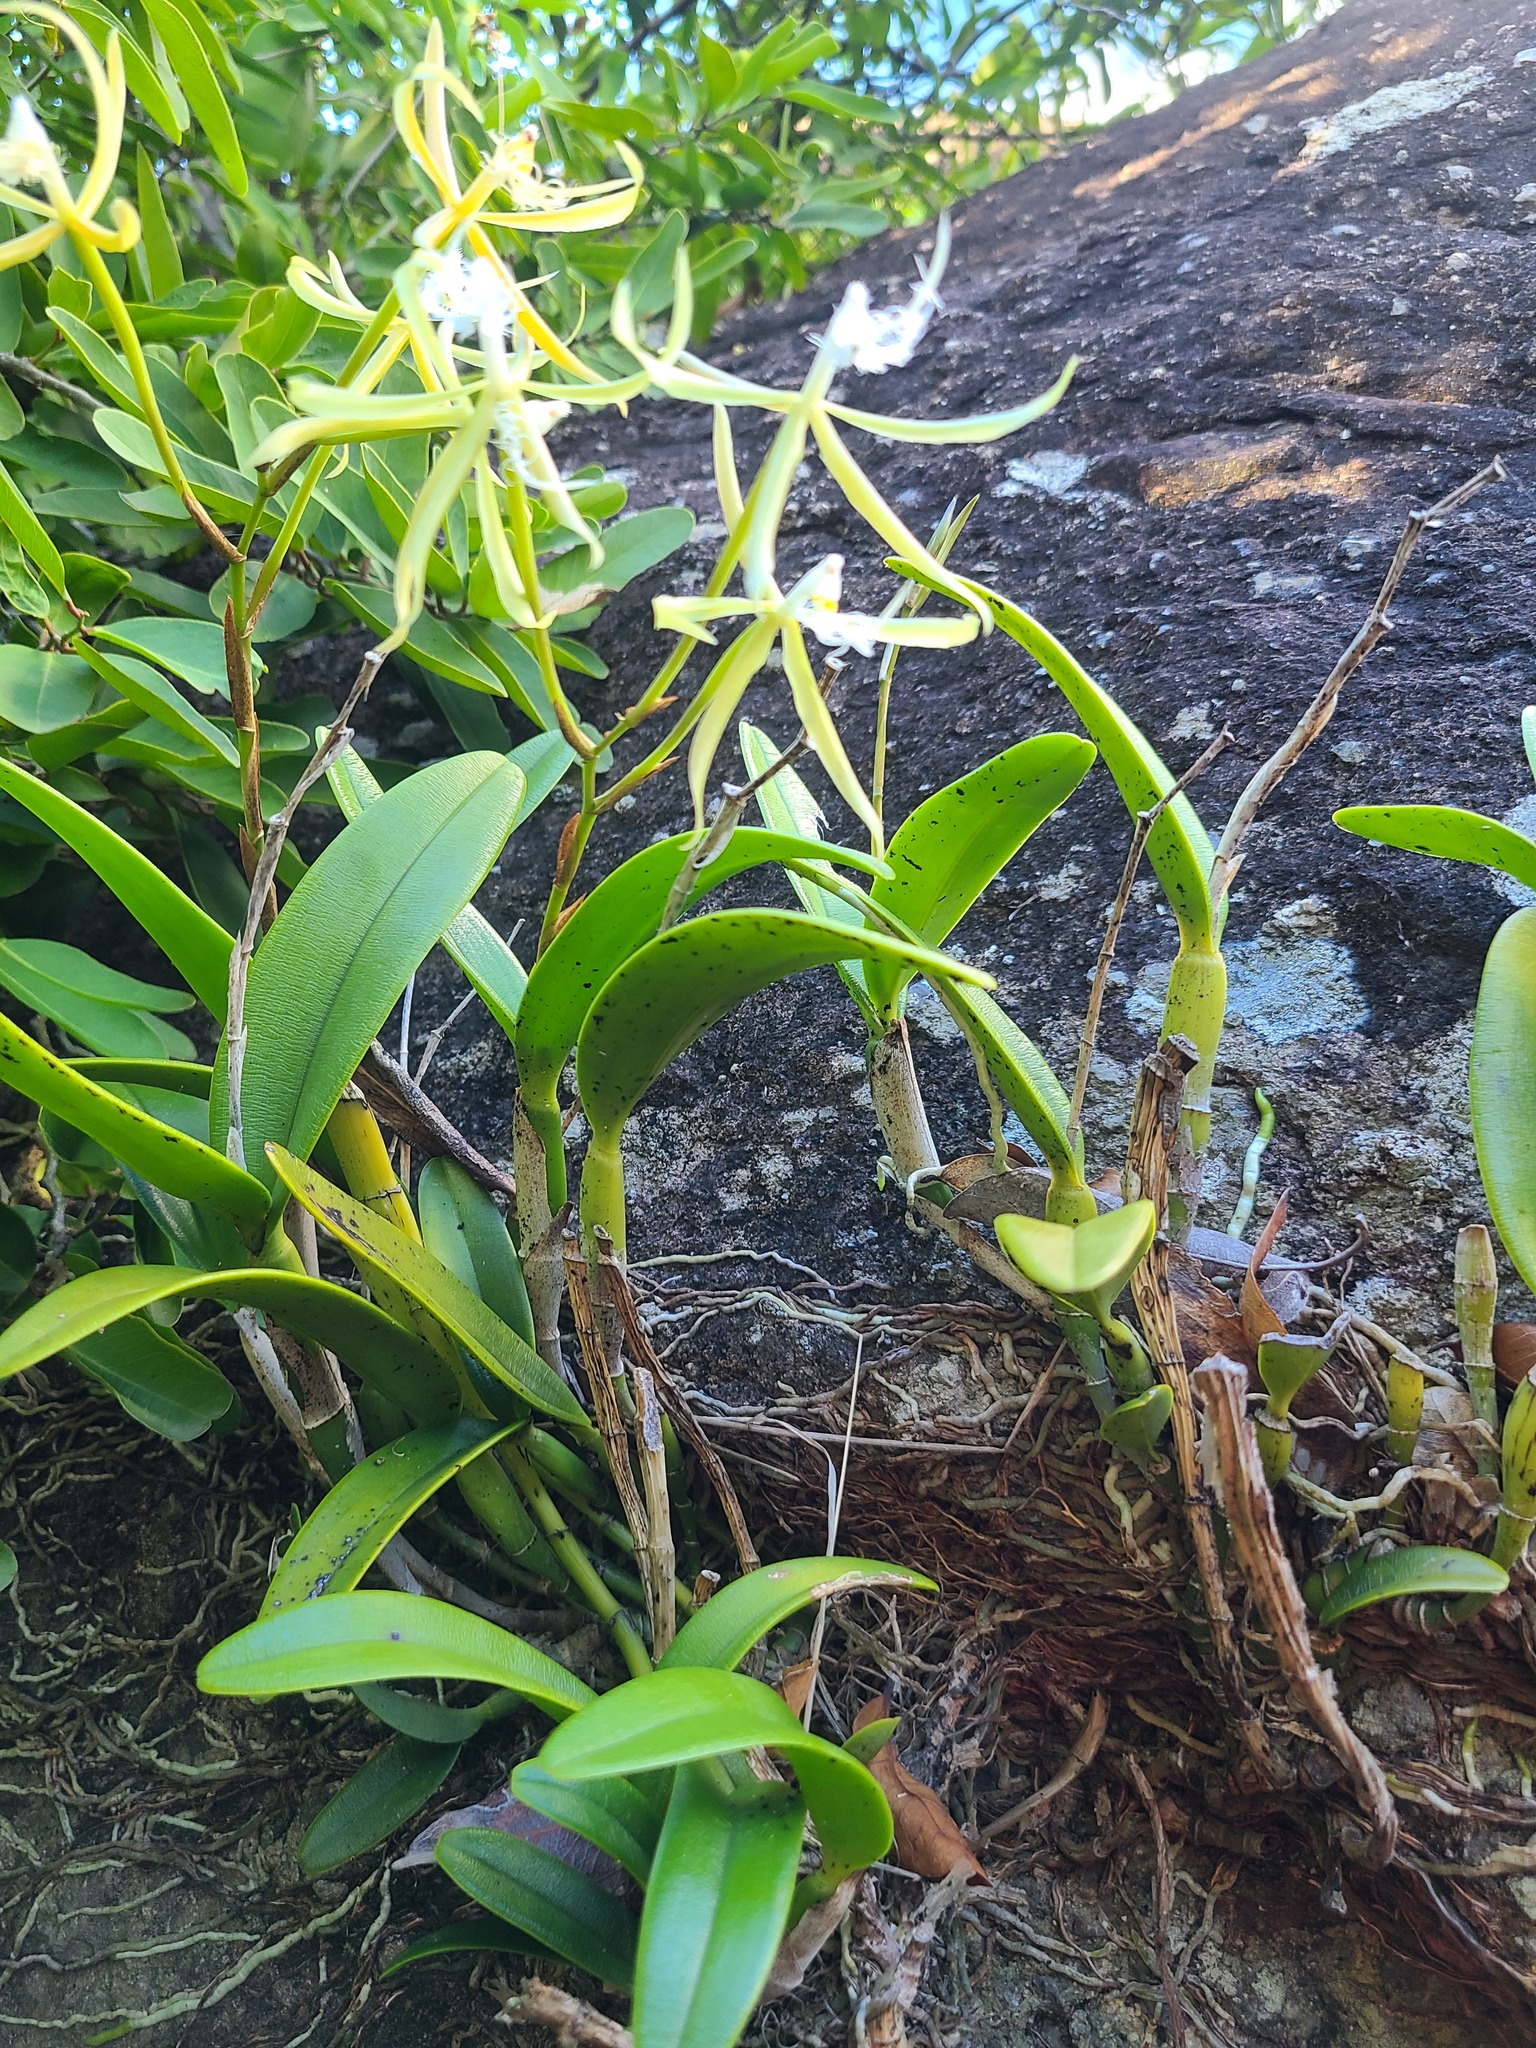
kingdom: Plantae
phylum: Tracheophyta
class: Liliopsida
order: Asparagales
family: Orchidaceae
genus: Epidendrum
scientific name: Epidendrum ciliare
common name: Eyelash orchid
